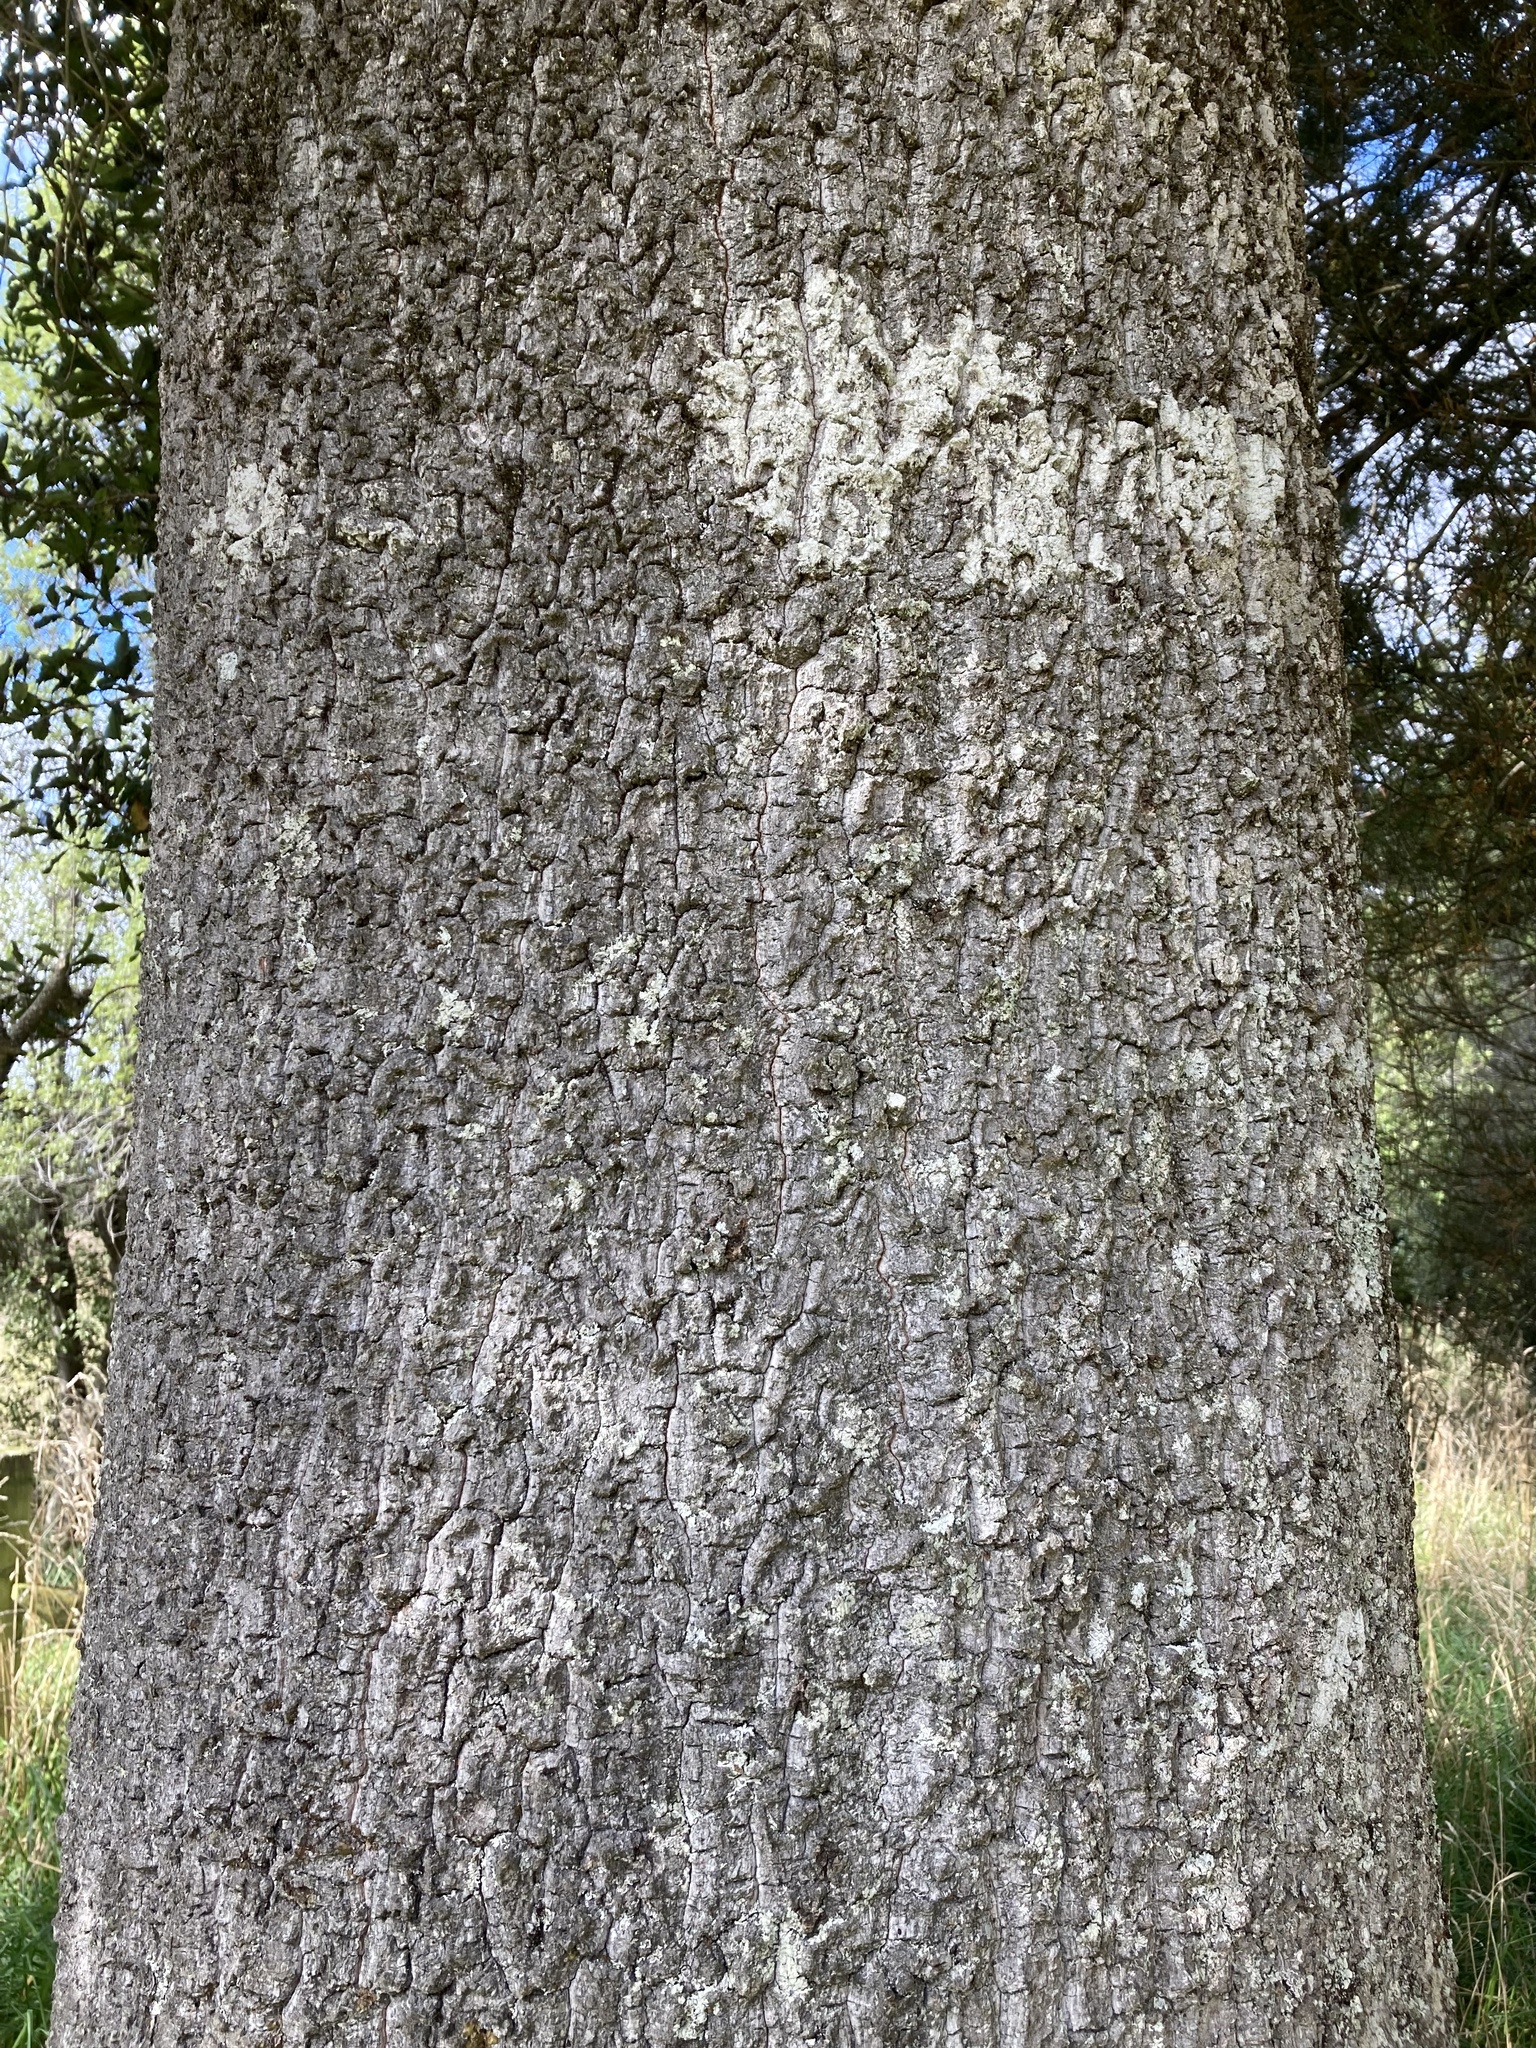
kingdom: Plantae
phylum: Tracheophyta
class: Magnoliopsida
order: Oxalidales
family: Elaeocarpaceae
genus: Elaeocarpus
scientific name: Elaeocarpus hookerianus
